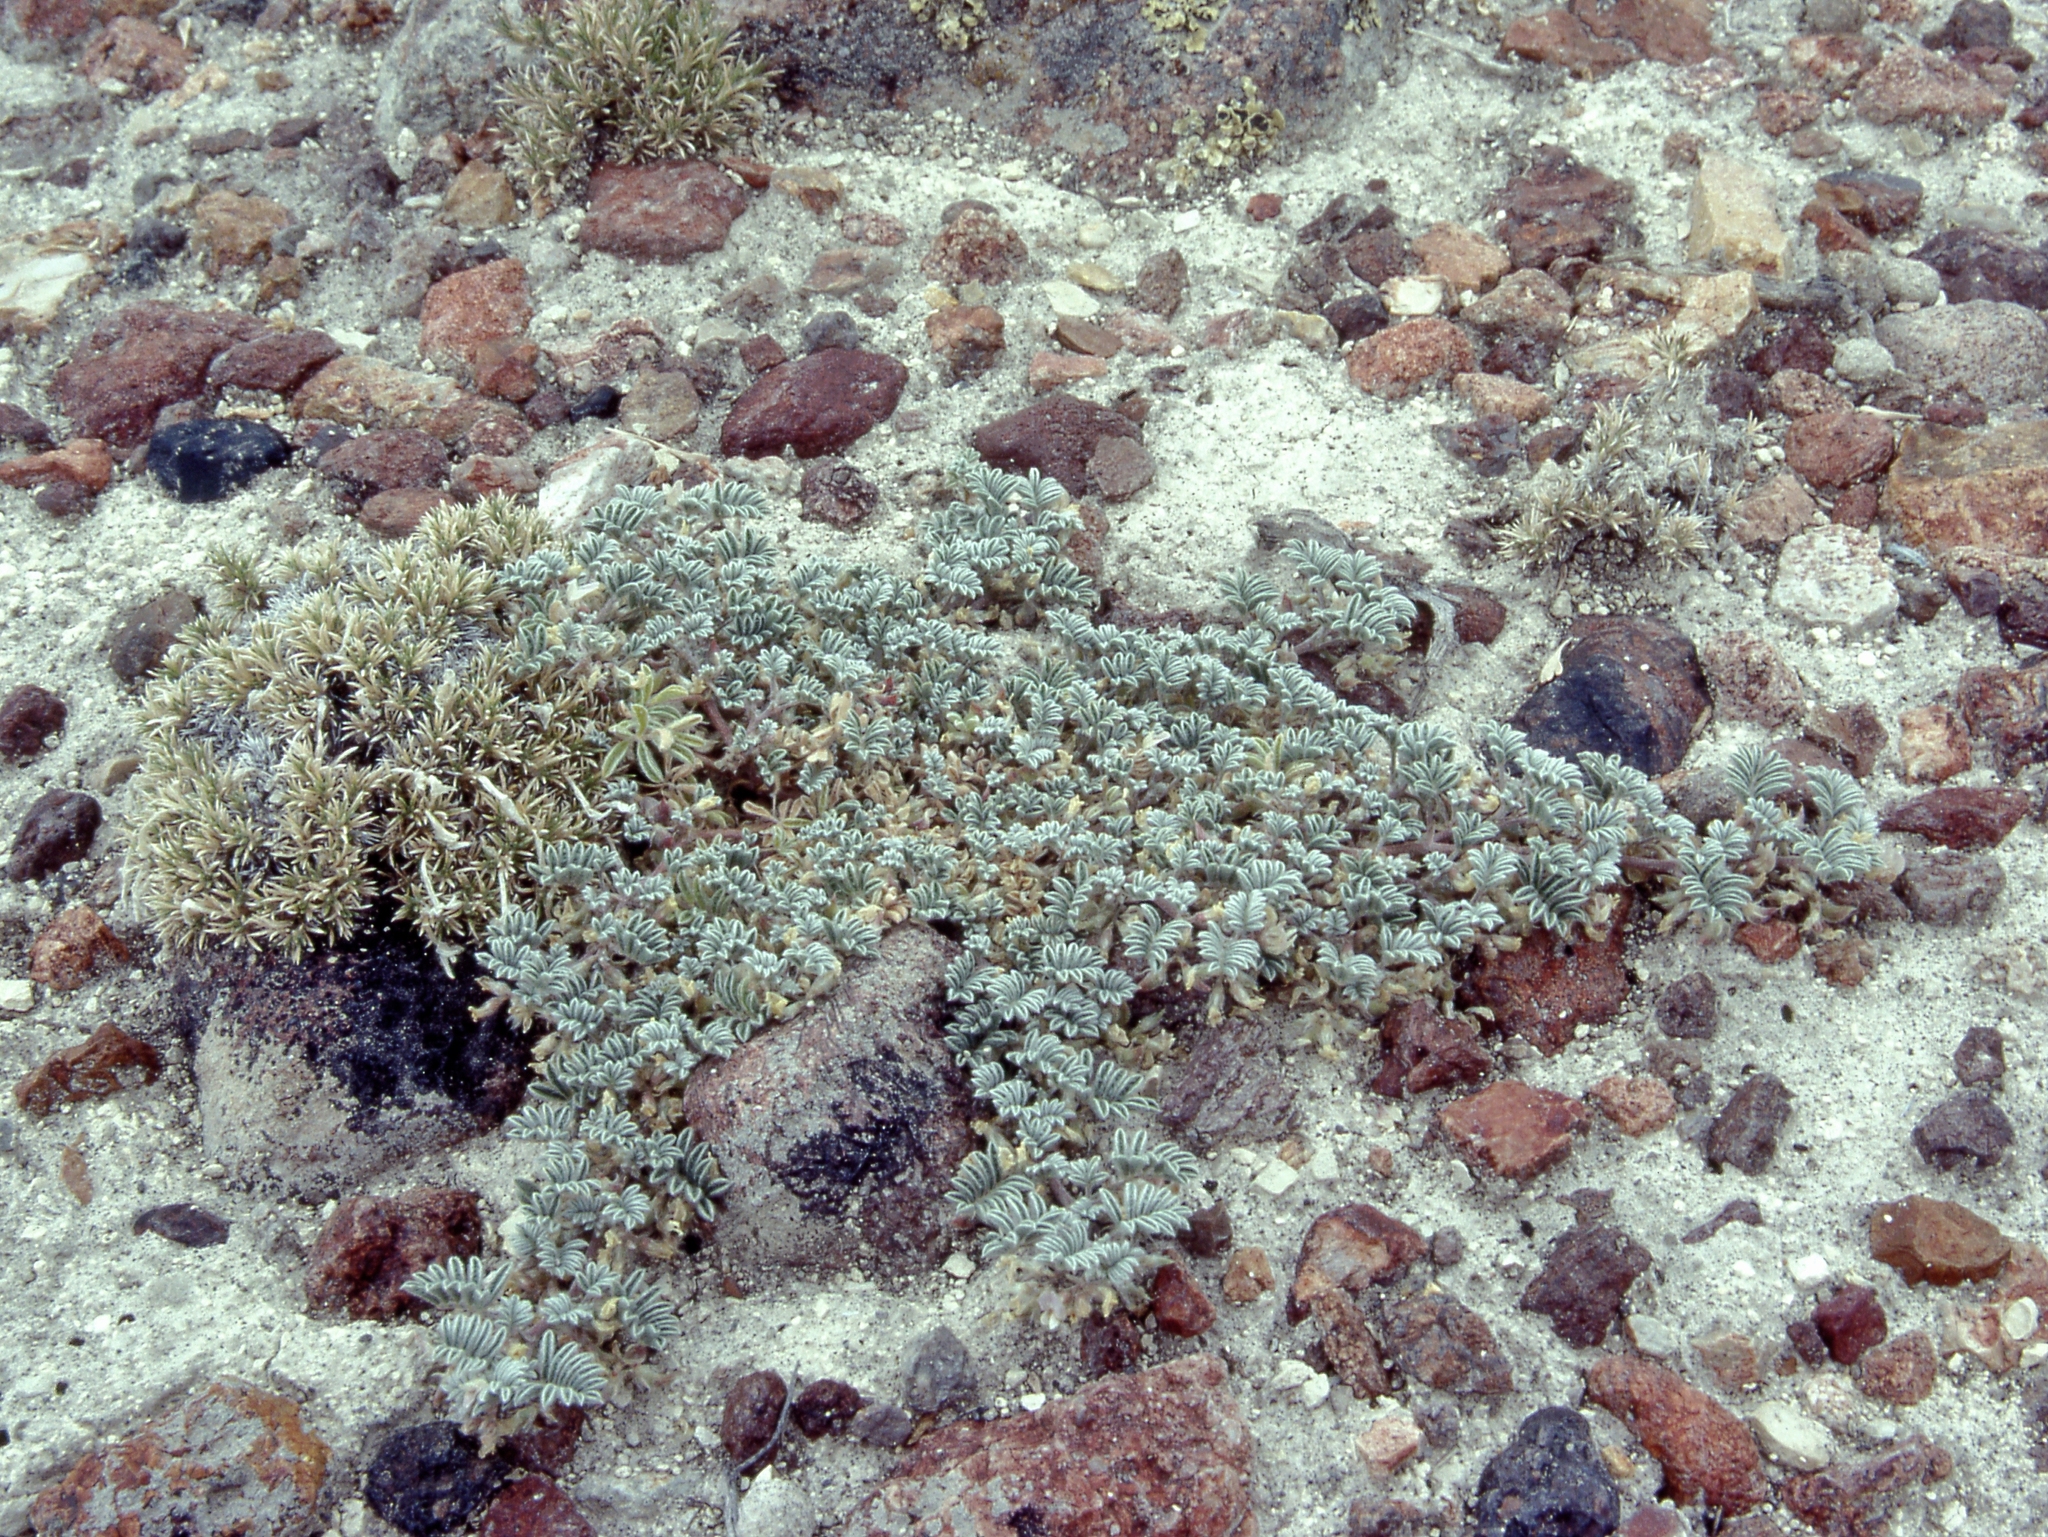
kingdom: Plantae
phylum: Tracheophyta
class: Magnoliopsida
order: Fabales
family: Fabaceae
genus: Astragalus
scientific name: Astragalus tiehmii
